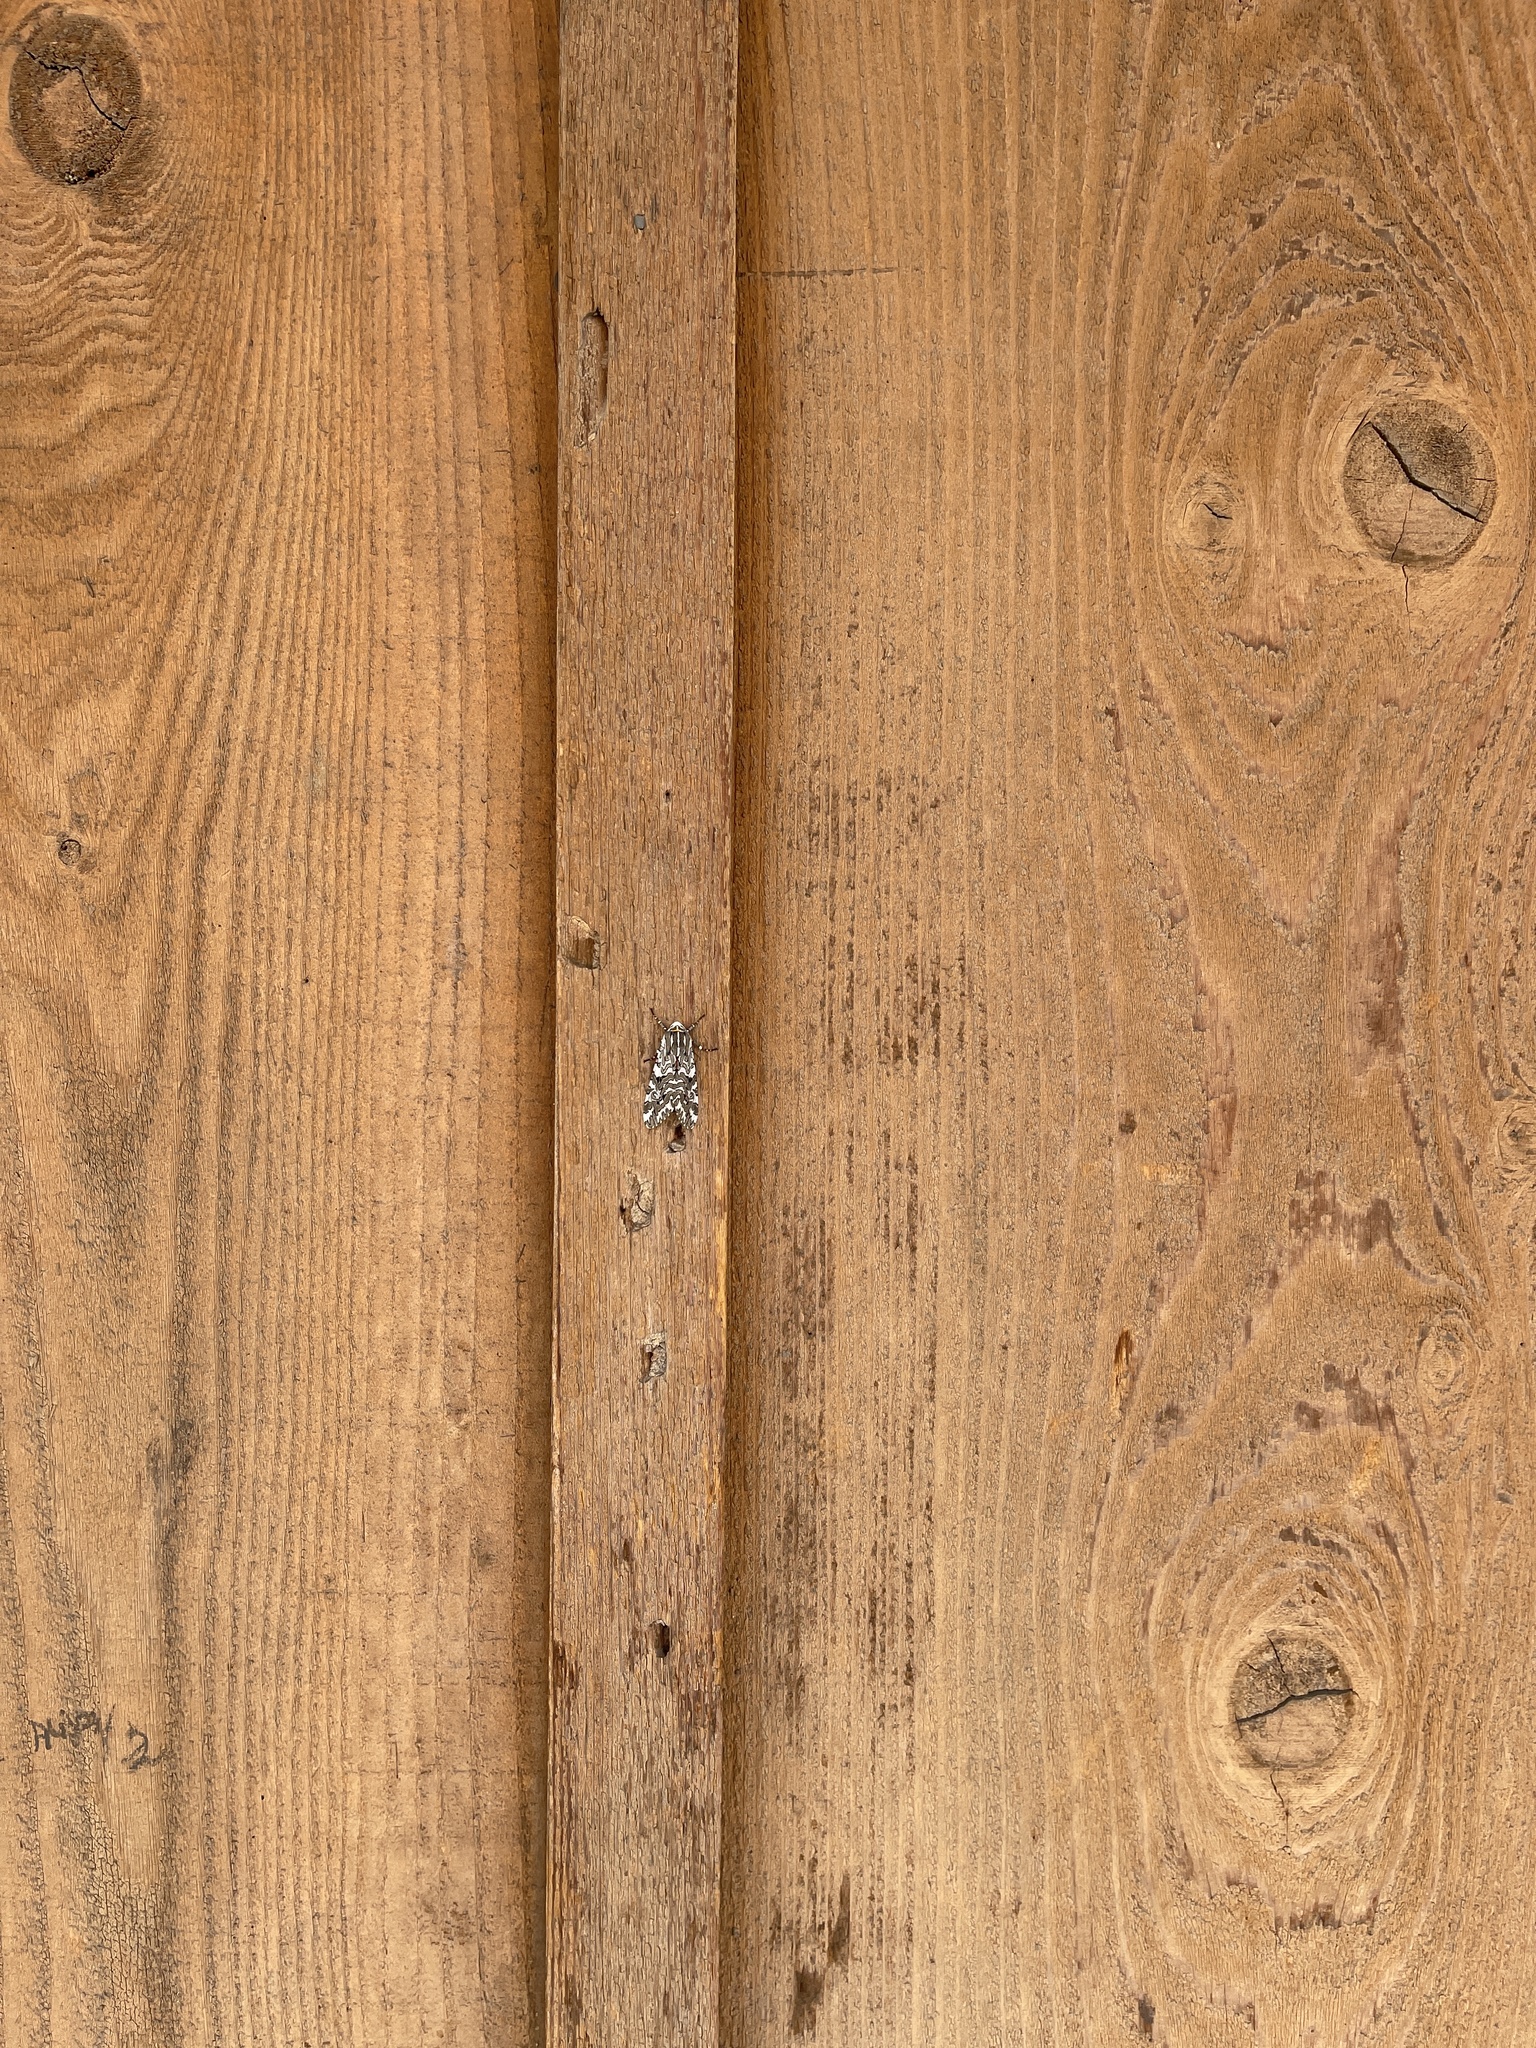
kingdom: Animalia
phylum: Arthropoda
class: Insecta
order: Lepidoptera
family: Erebidae
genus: Arachnis
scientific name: Arachnis picta
